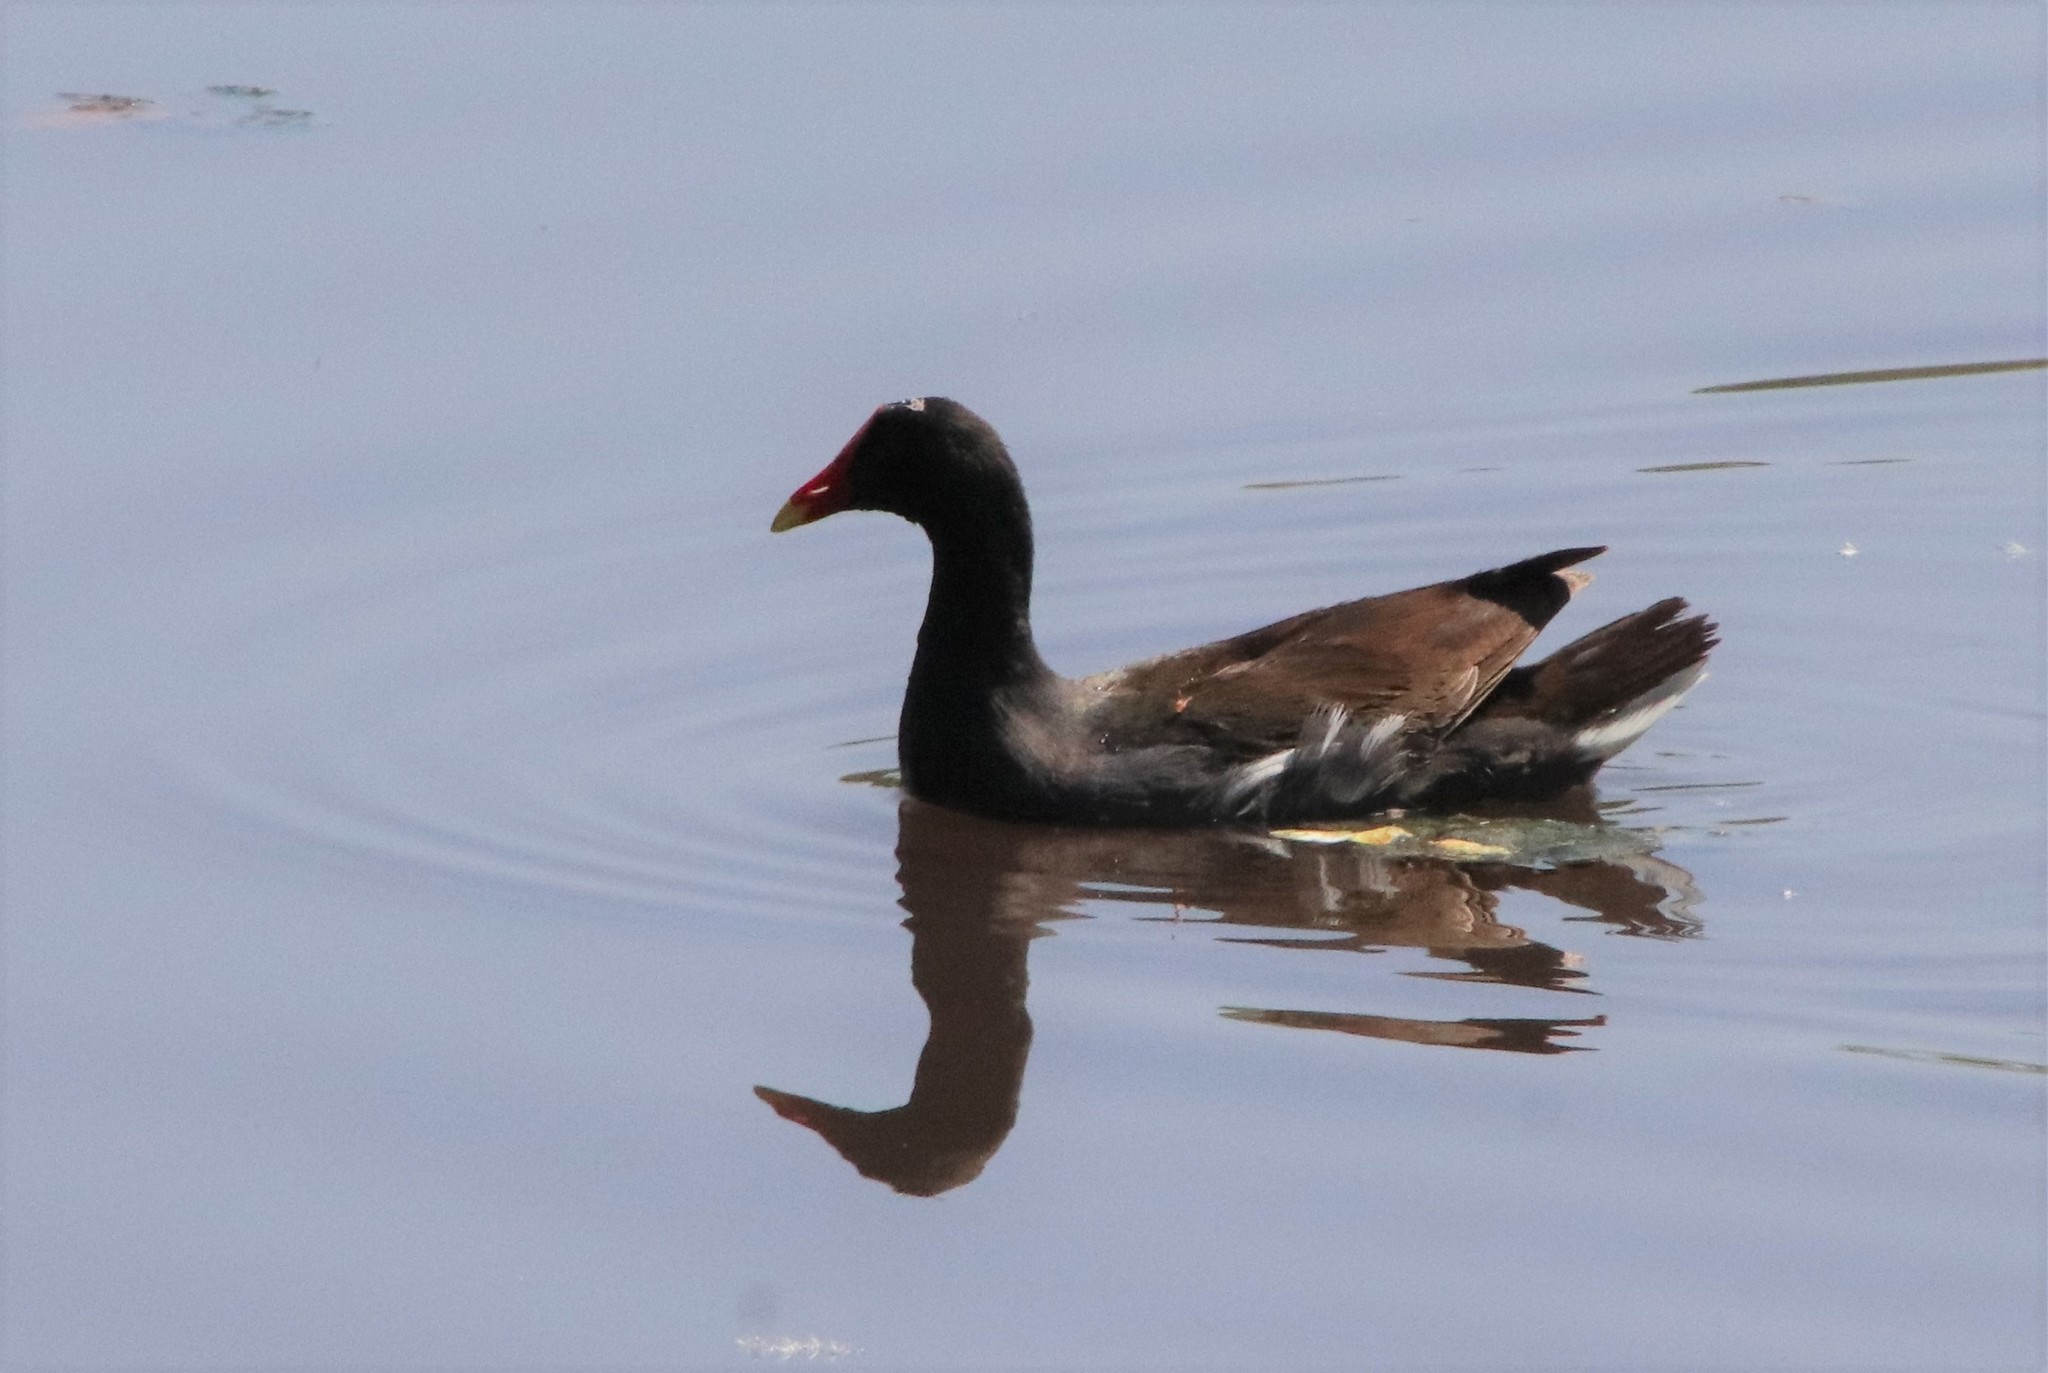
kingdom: Animalia
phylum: Chordata
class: Aves
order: Gruiformes
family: Rallidae
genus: Gallinula
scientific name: Gallinula chloropus
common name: Common moorhen
